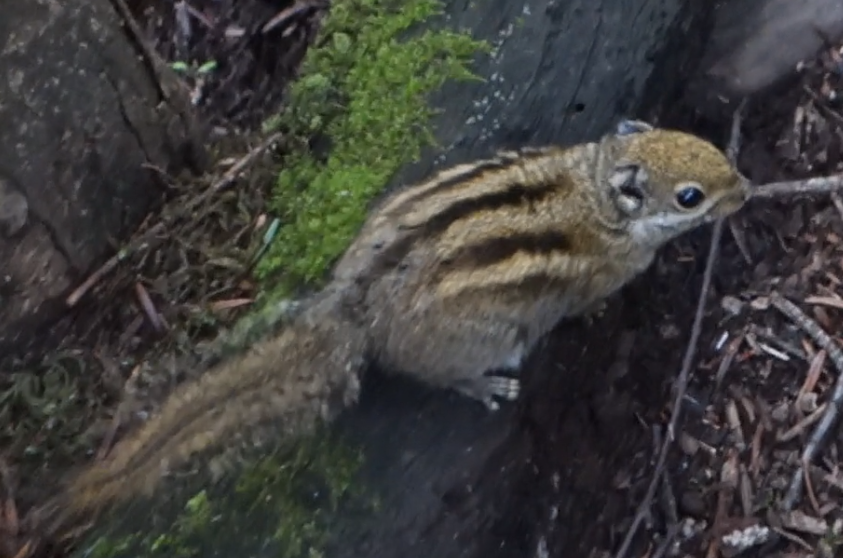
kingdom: Animalia
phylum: Chordata
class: Mammalia
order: Rodentia
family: Sciuridae
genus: Tamiops
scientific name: Tamiops swinhoei
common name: Swinhoe's striped squirrel
